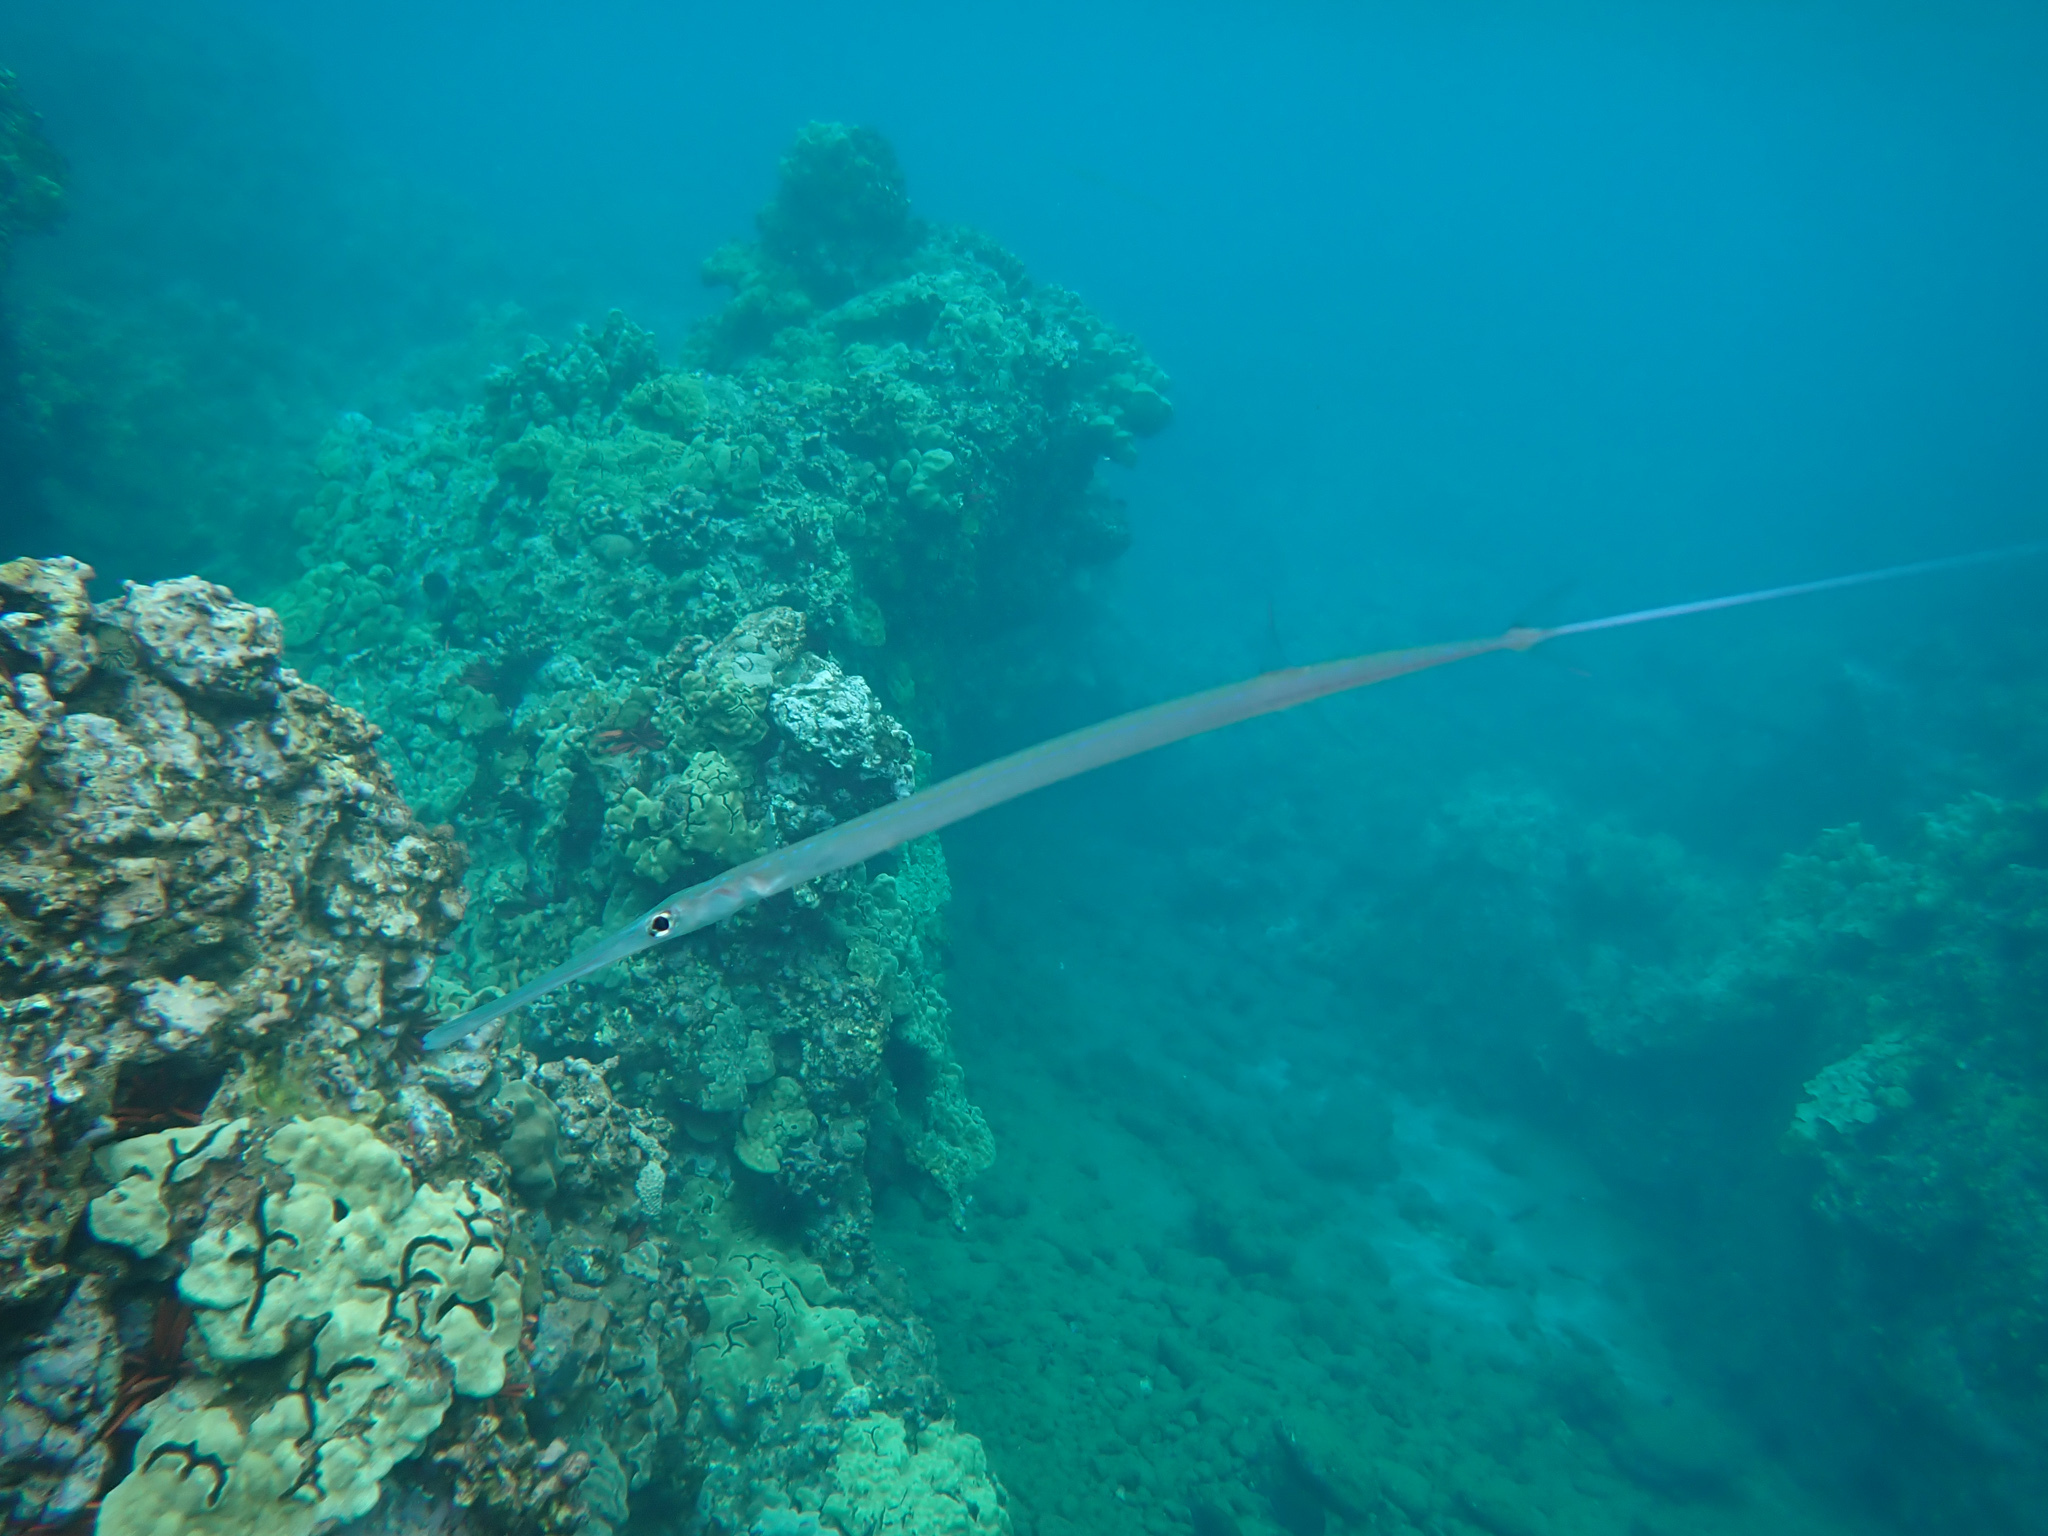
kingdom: Animalia
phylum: Chordata
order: Syngnathiformes
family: Fistulariidae
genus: Fistularia
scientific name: Fistularia commersonii
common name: Bluespotted cornetfish
